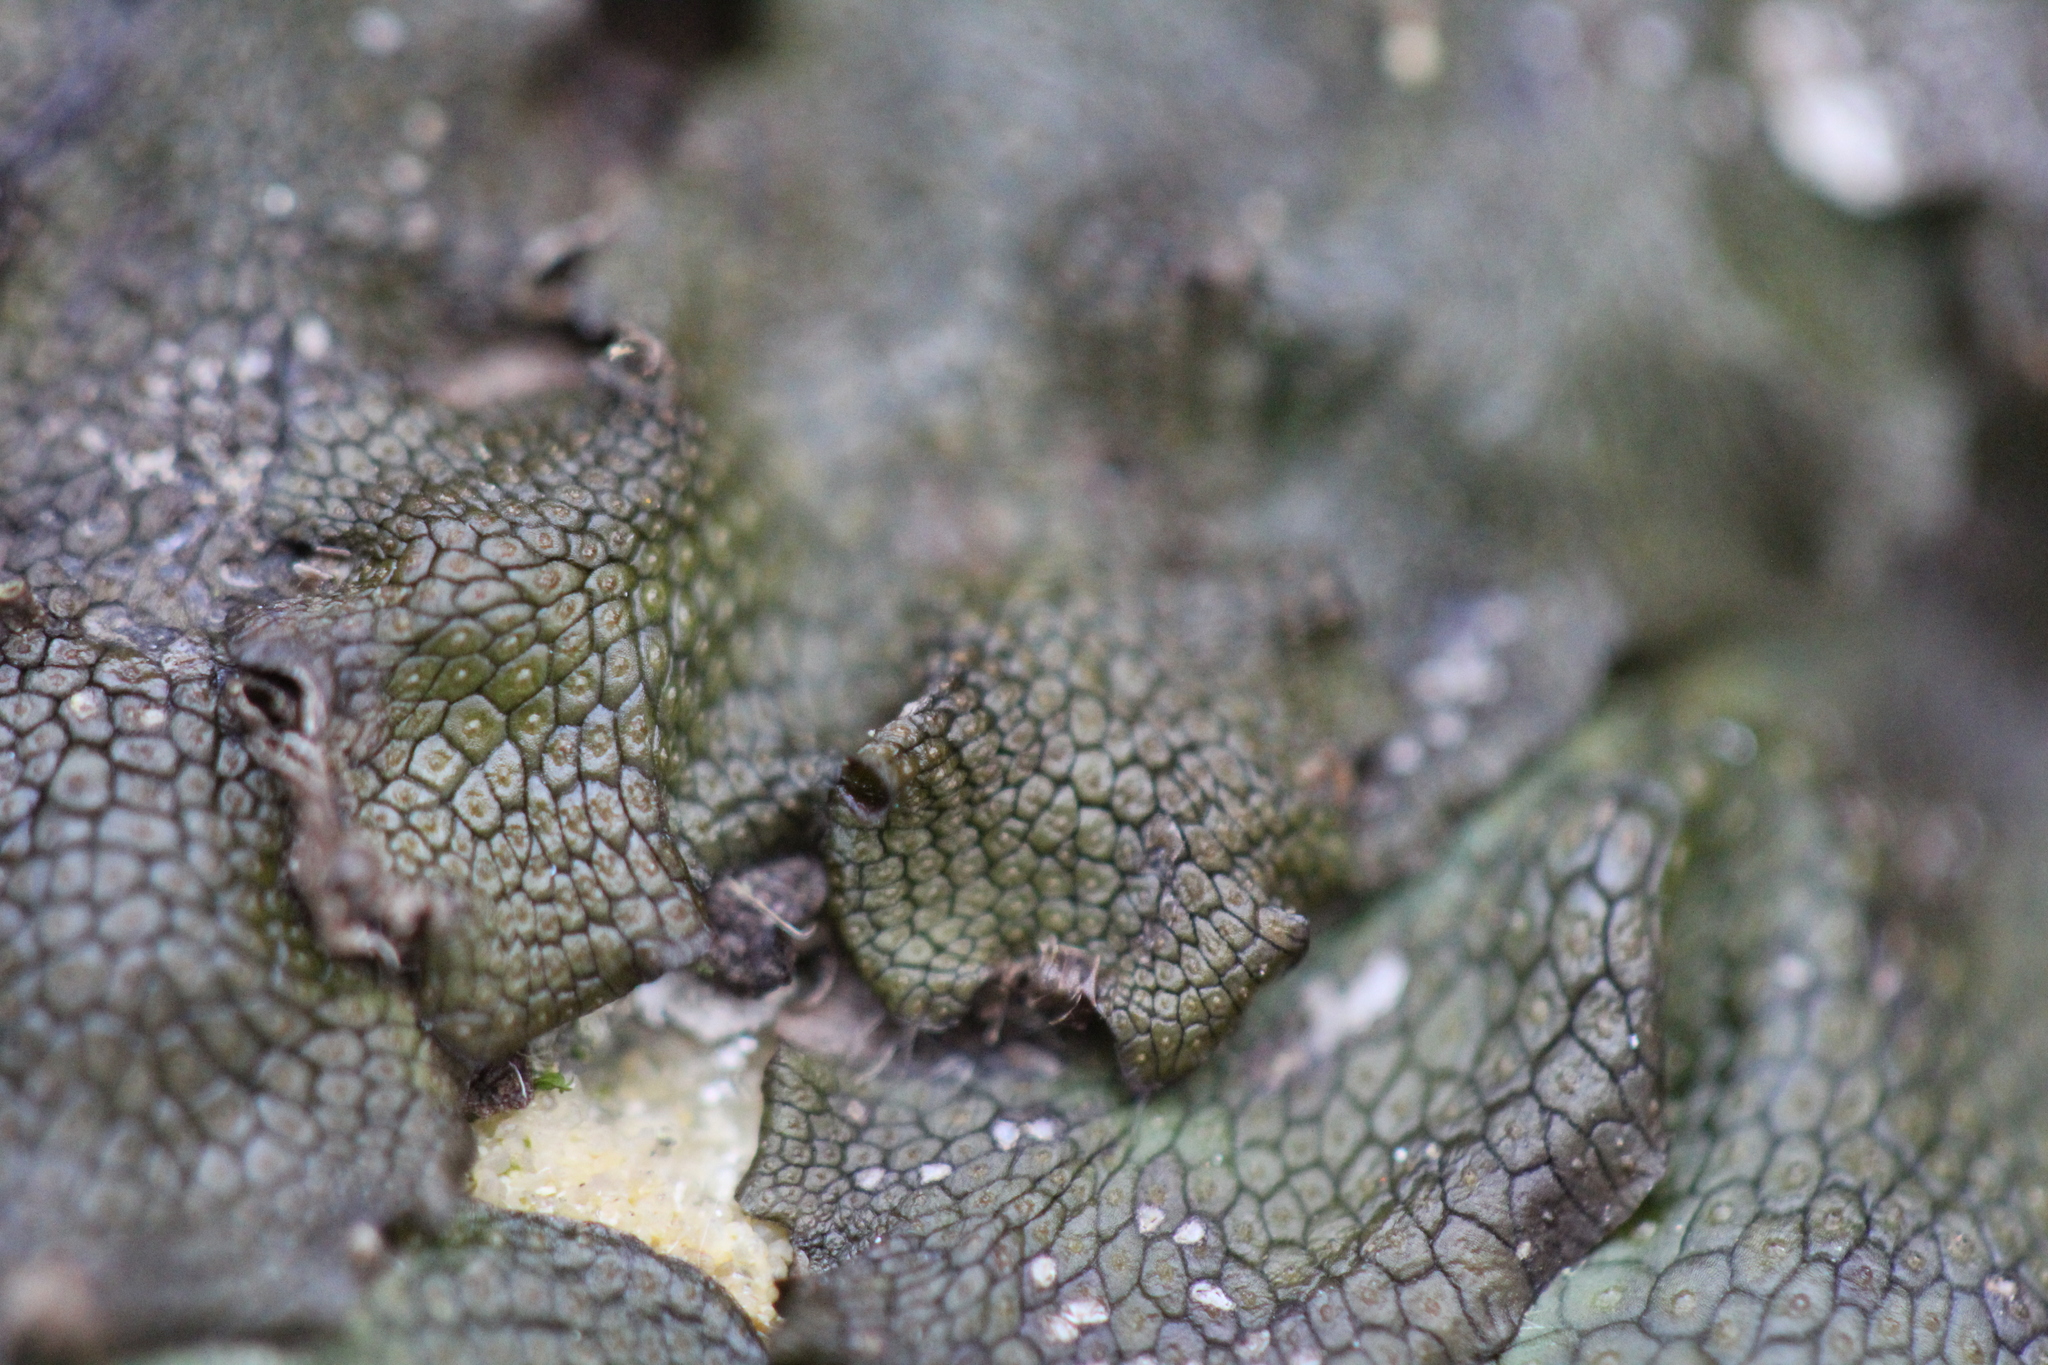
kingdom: Plantae
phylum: Marchantiophyta
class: Marchantiopsida
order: Marchantiales
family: Conocephalaceae
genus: Conocephalum
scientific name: Conocephalum salebrosum
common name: Cat-tongue liverwort
